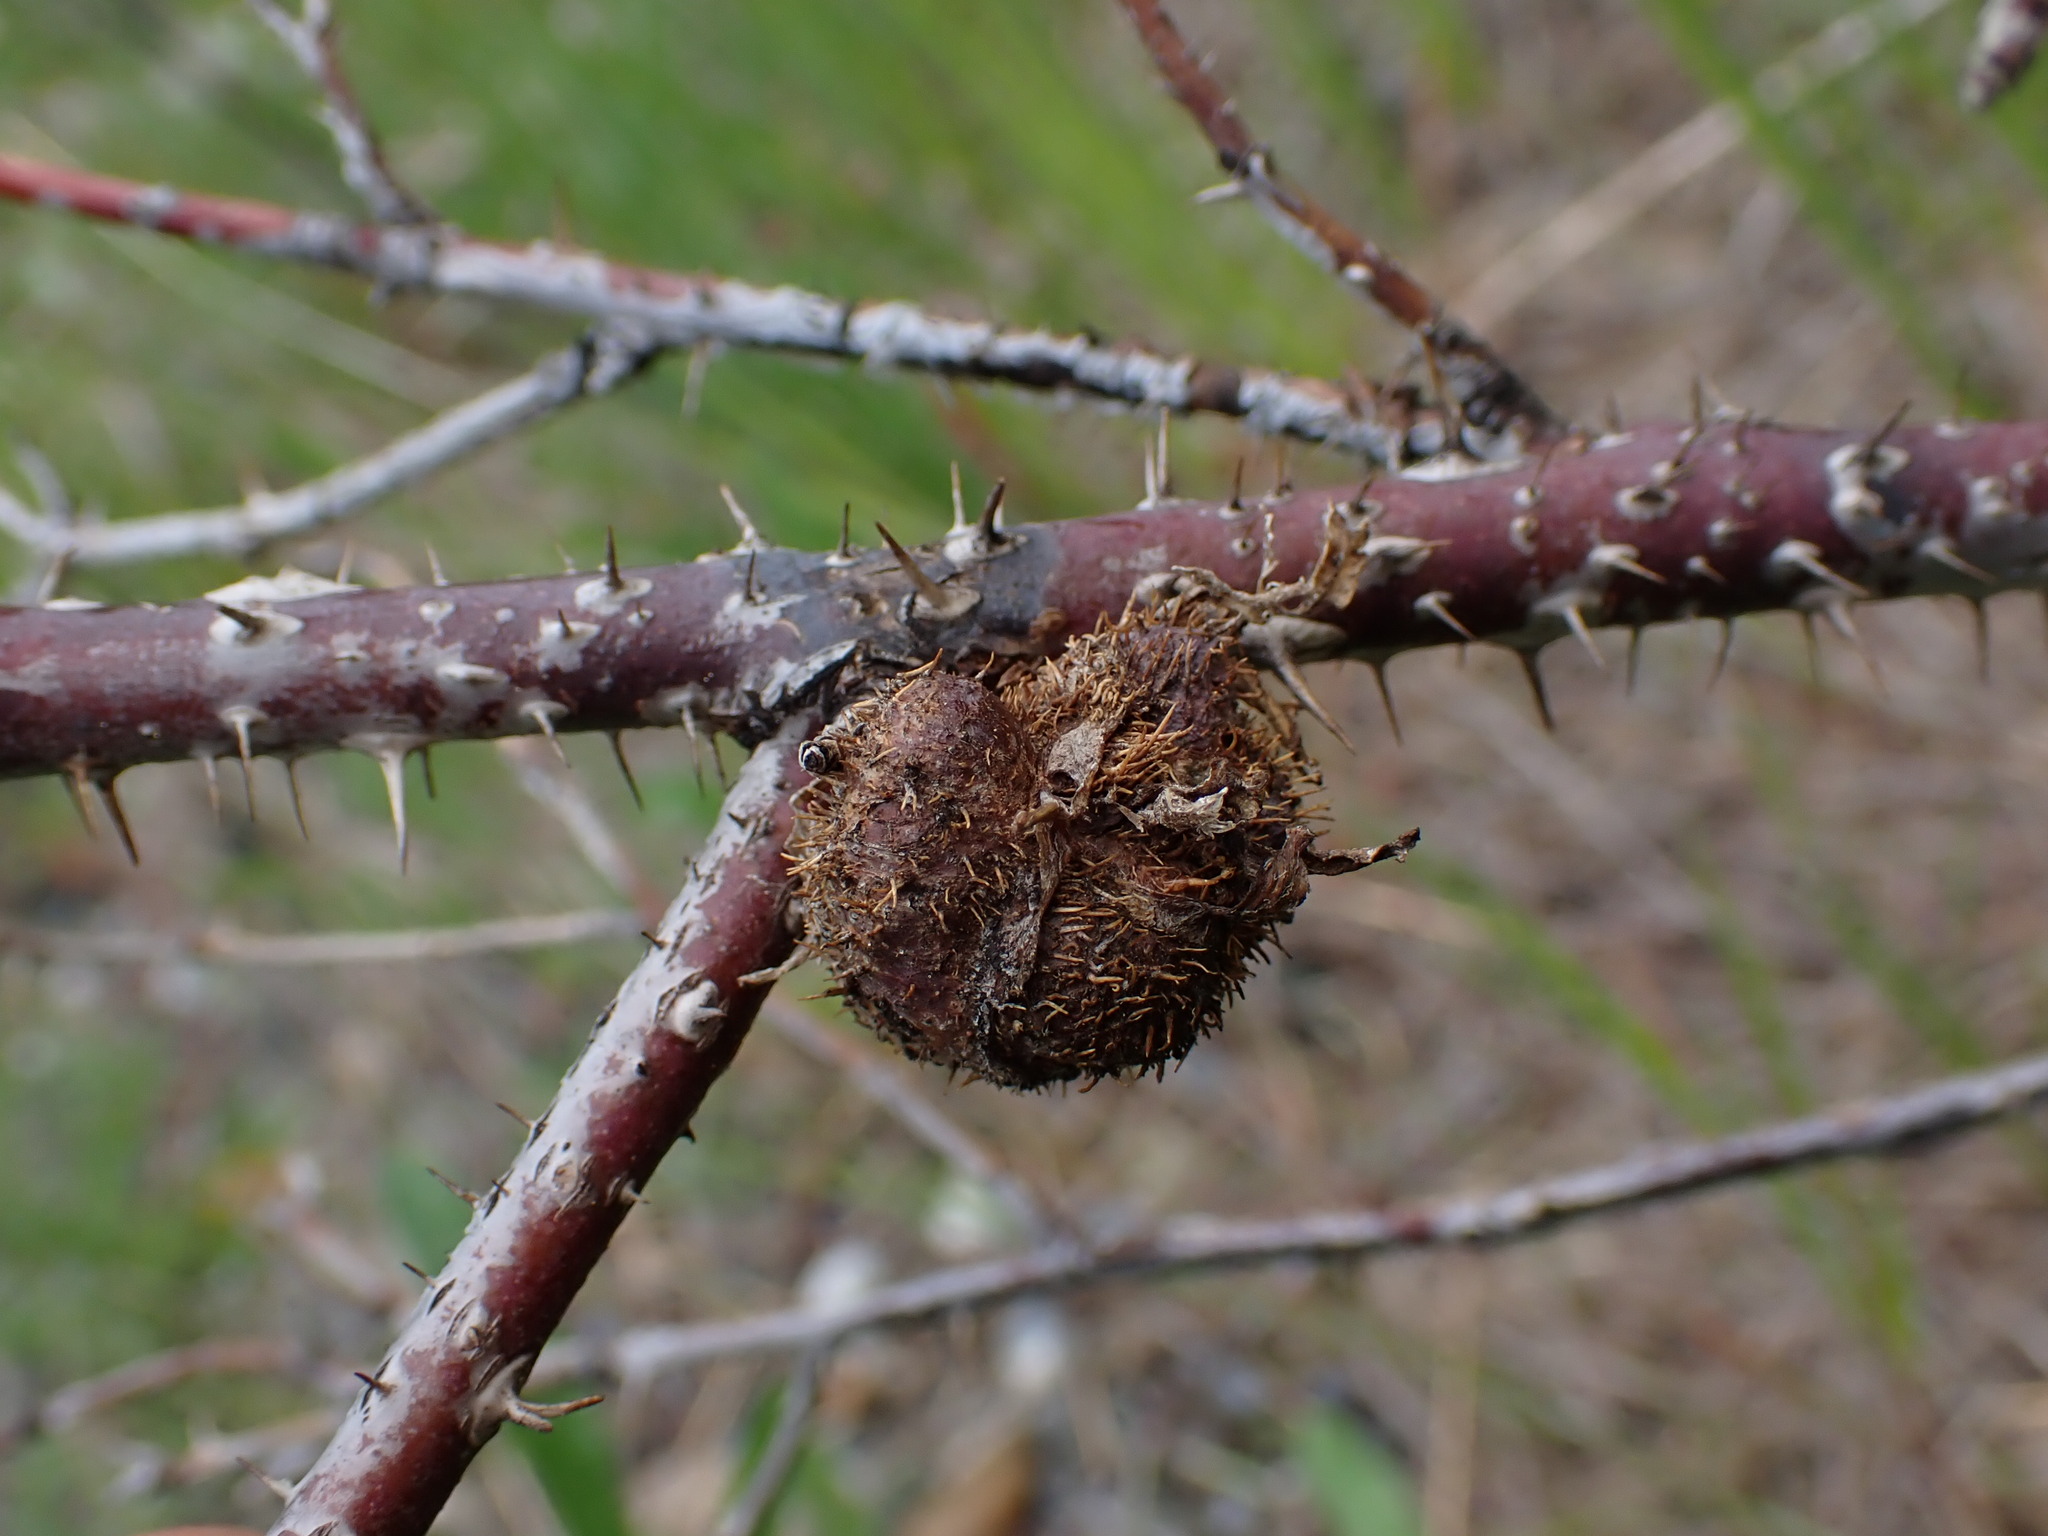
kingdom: Animalia
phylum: Arthropoda
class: Insecta
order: Hymenoptera
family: Cynipidae
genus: Diplolepis
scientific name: Diplolepis spinosa
